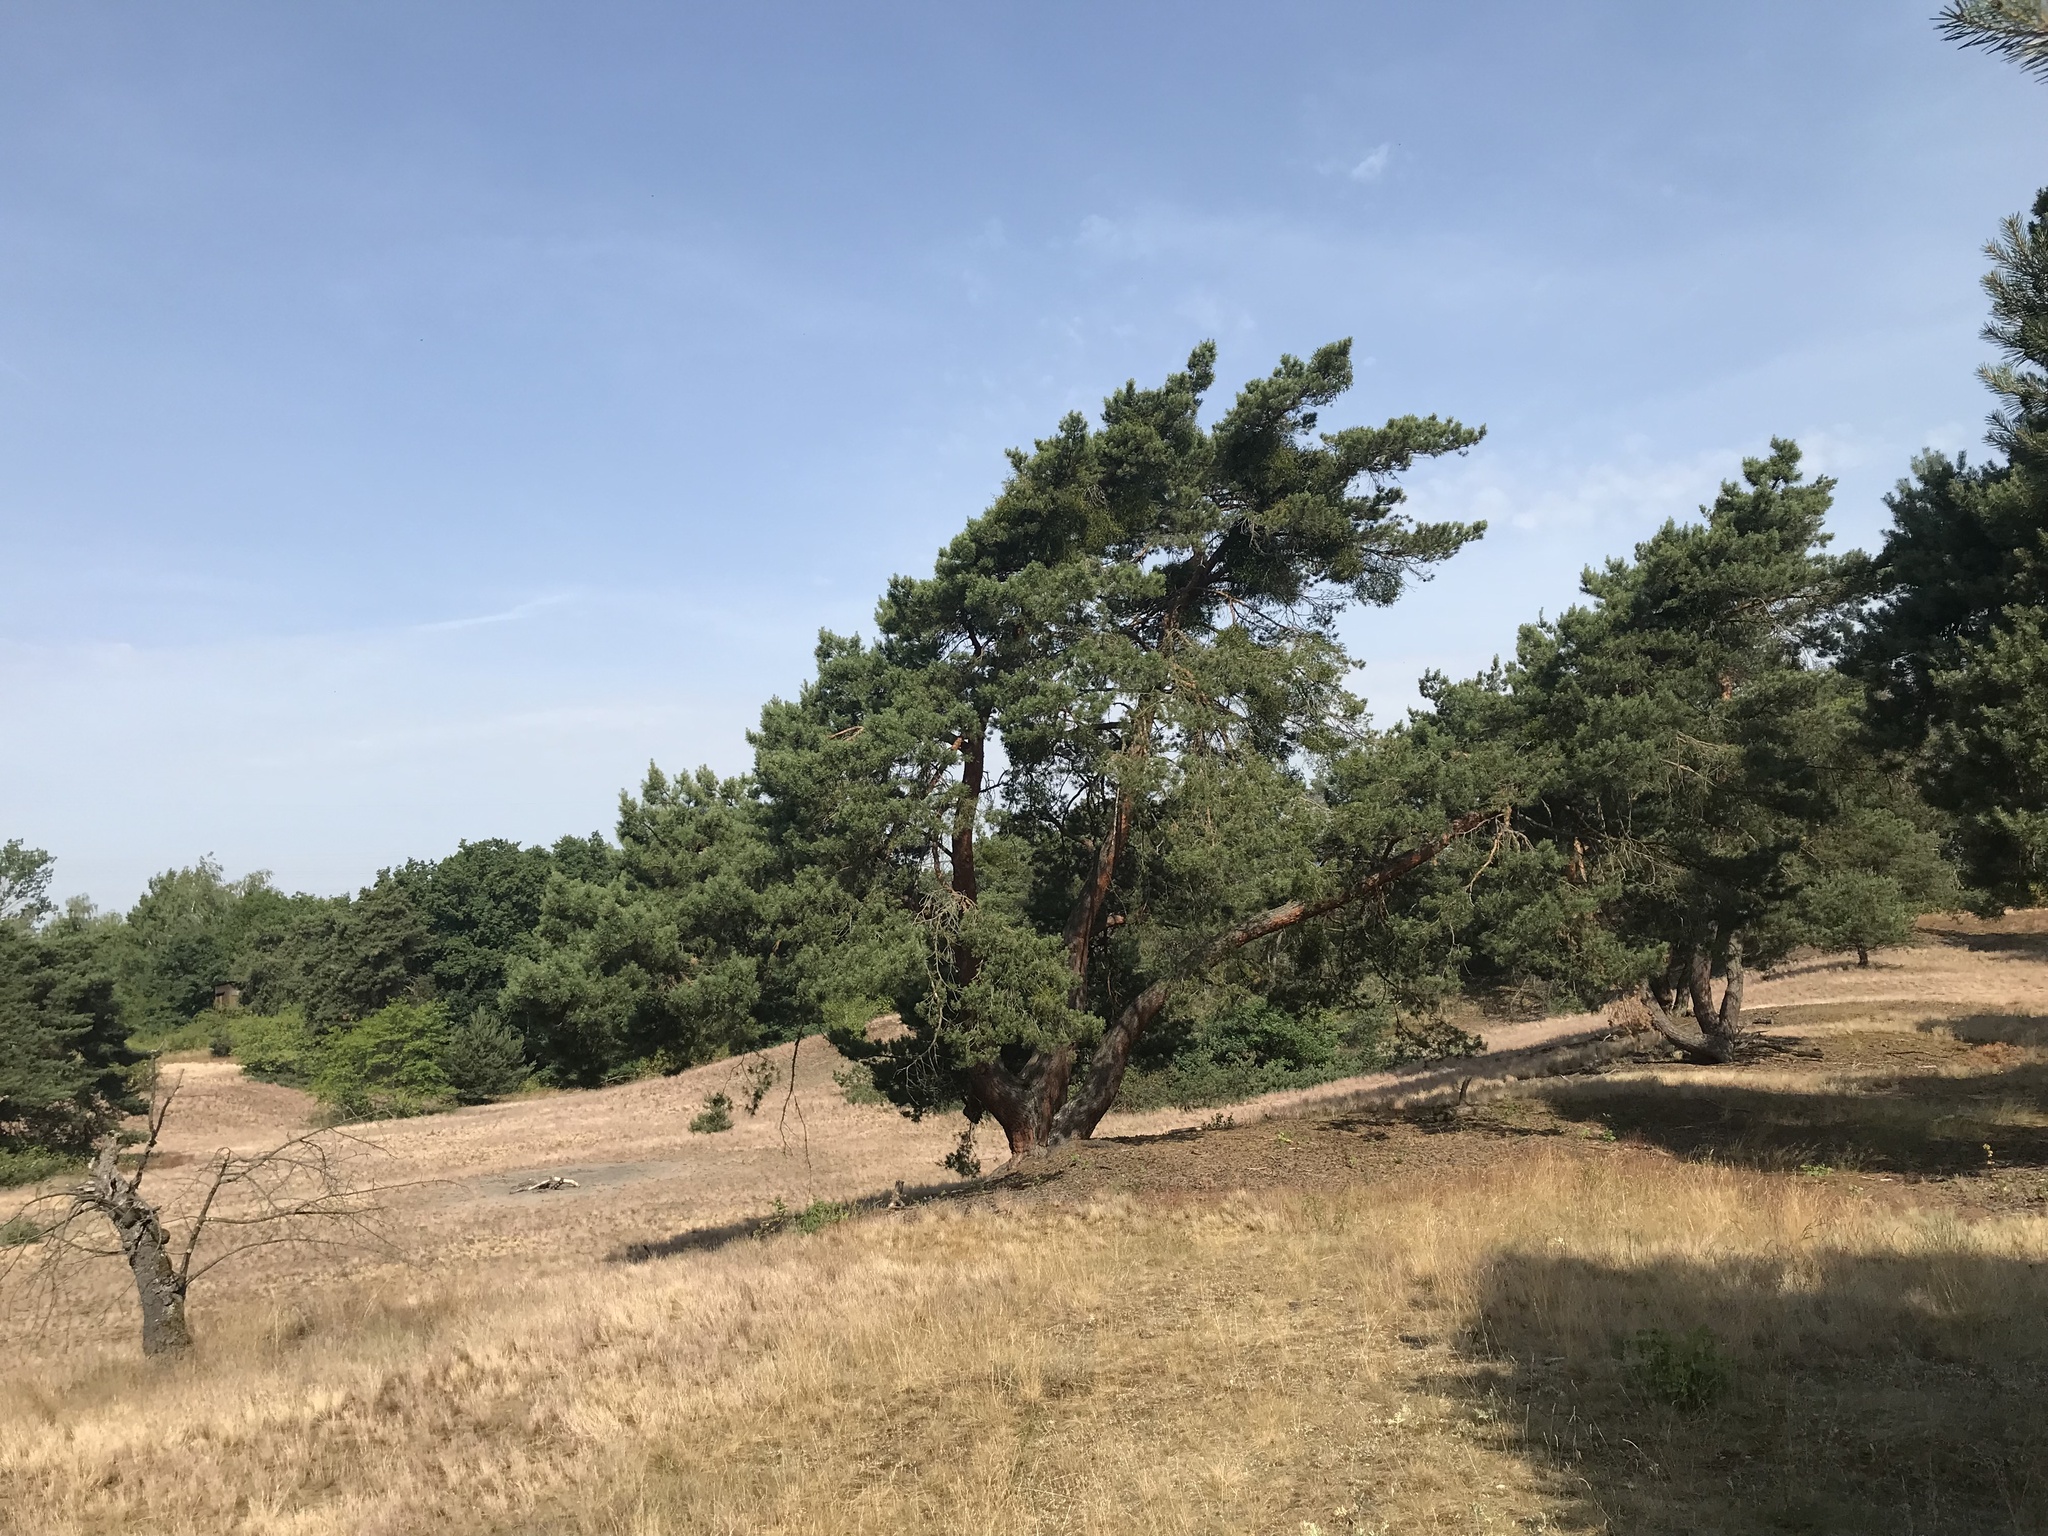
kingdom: Plantae
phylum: Tracheophyta
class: Pinopsida
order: Pinales
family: Pinaceae
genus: Pinus
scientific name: Pinus sylvestris
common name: Scots pine
